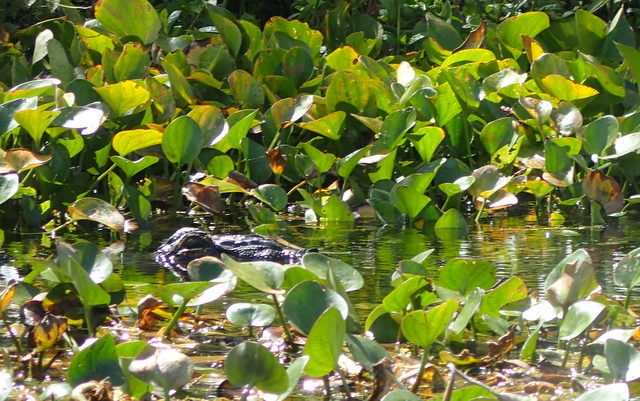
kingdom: Animalia
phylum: Chordata
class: Crocodylia
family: Alligatoridae
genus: Alligator
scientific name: Alligator mississippiensis
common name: American alligator
